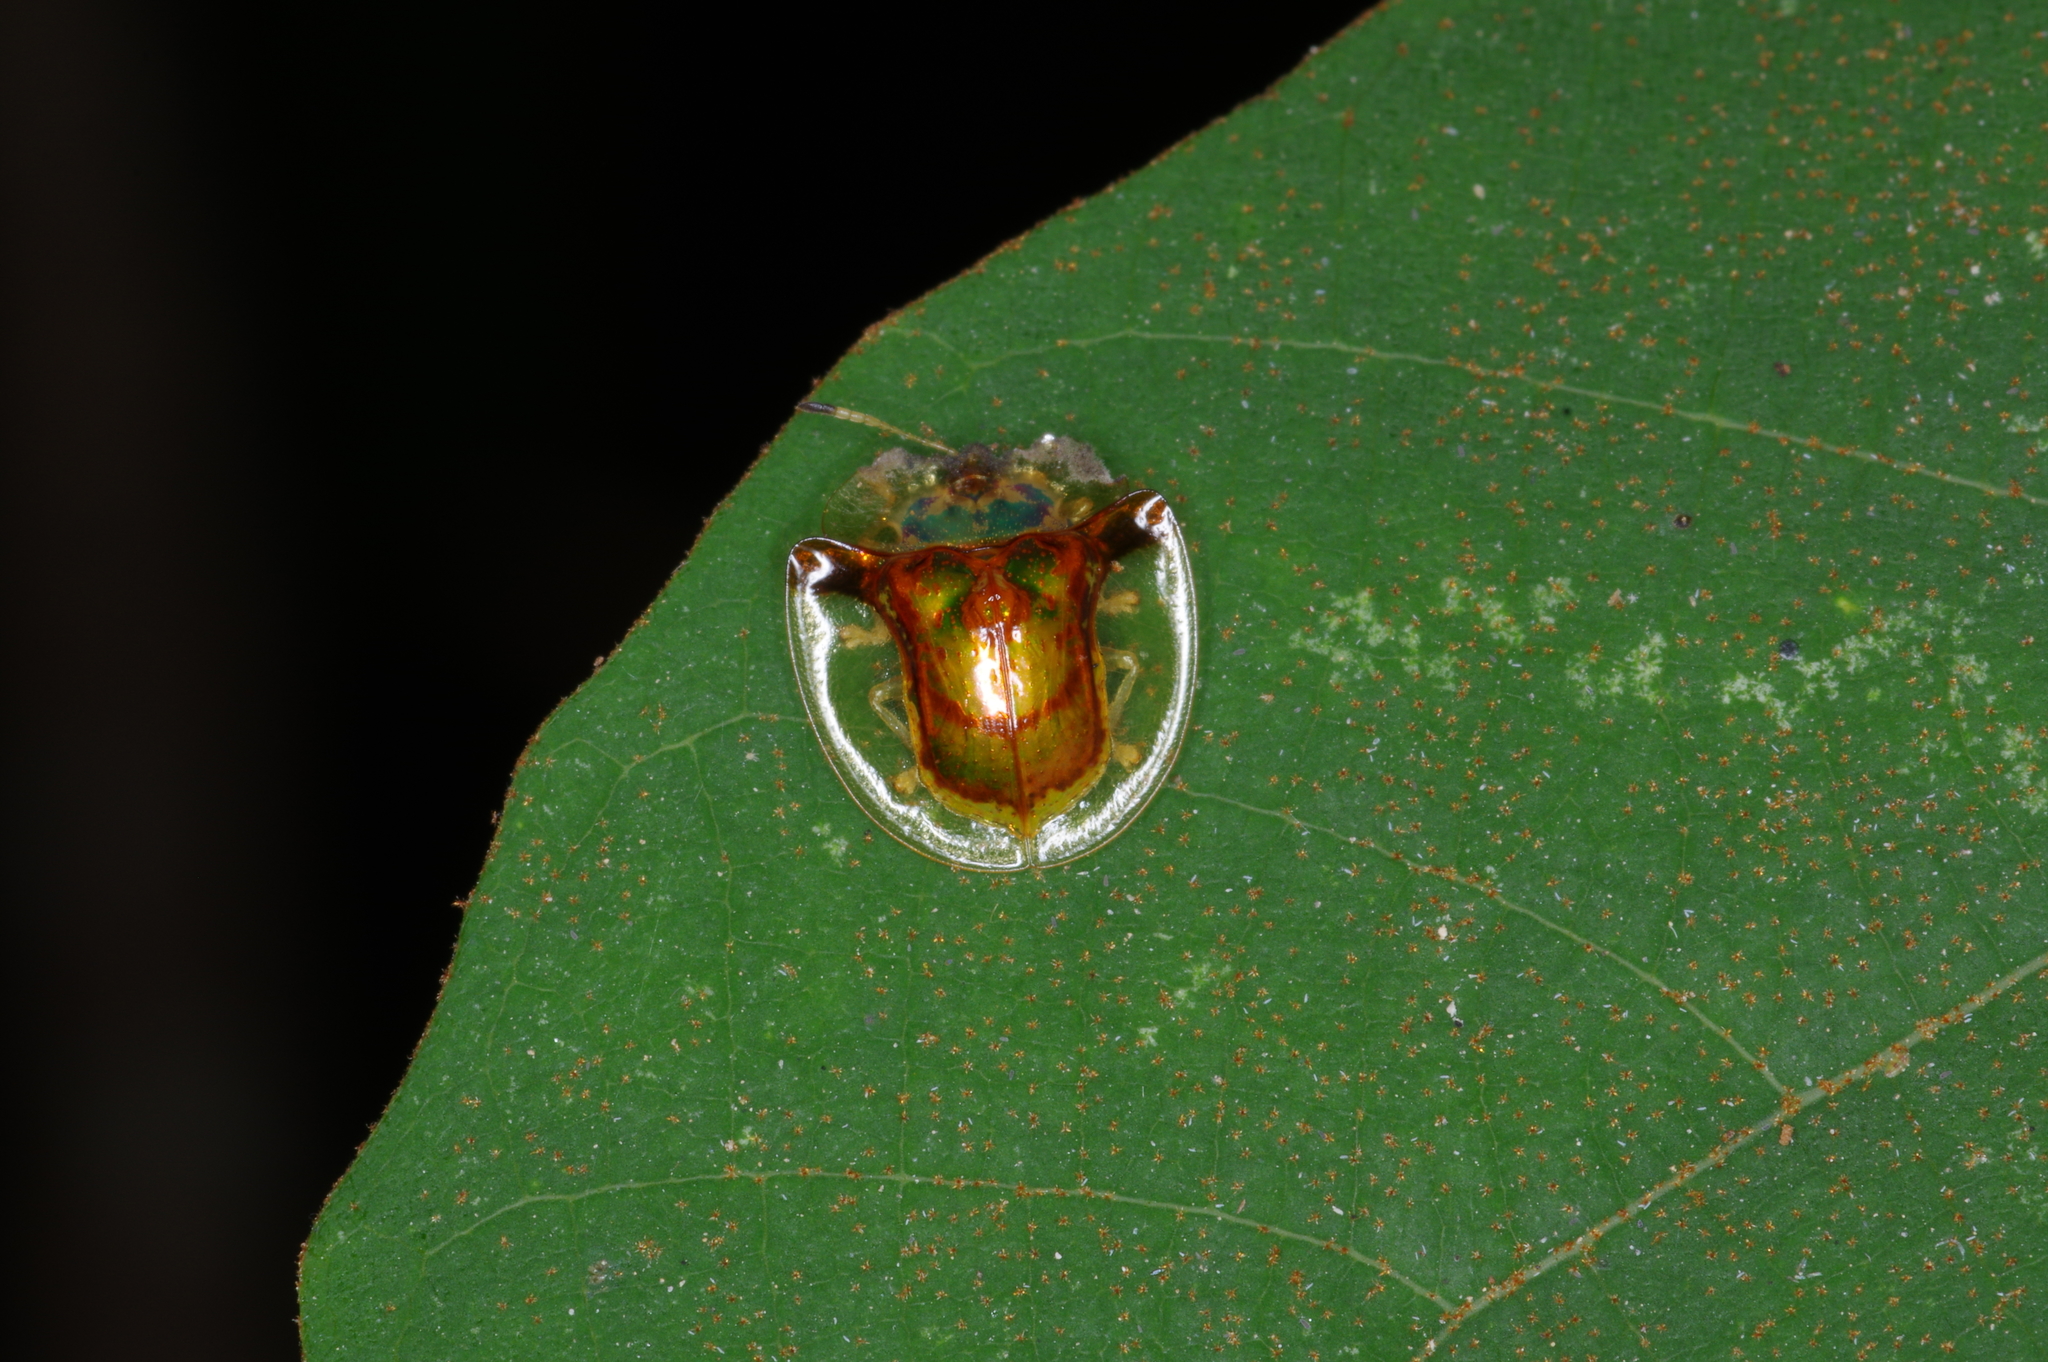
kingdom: Animalia
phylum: Arthropoda
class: Insecta
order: Coleoptera
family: Chrysomelidae
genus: Aspidimorpha
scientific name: Aspidimorpha furcata
